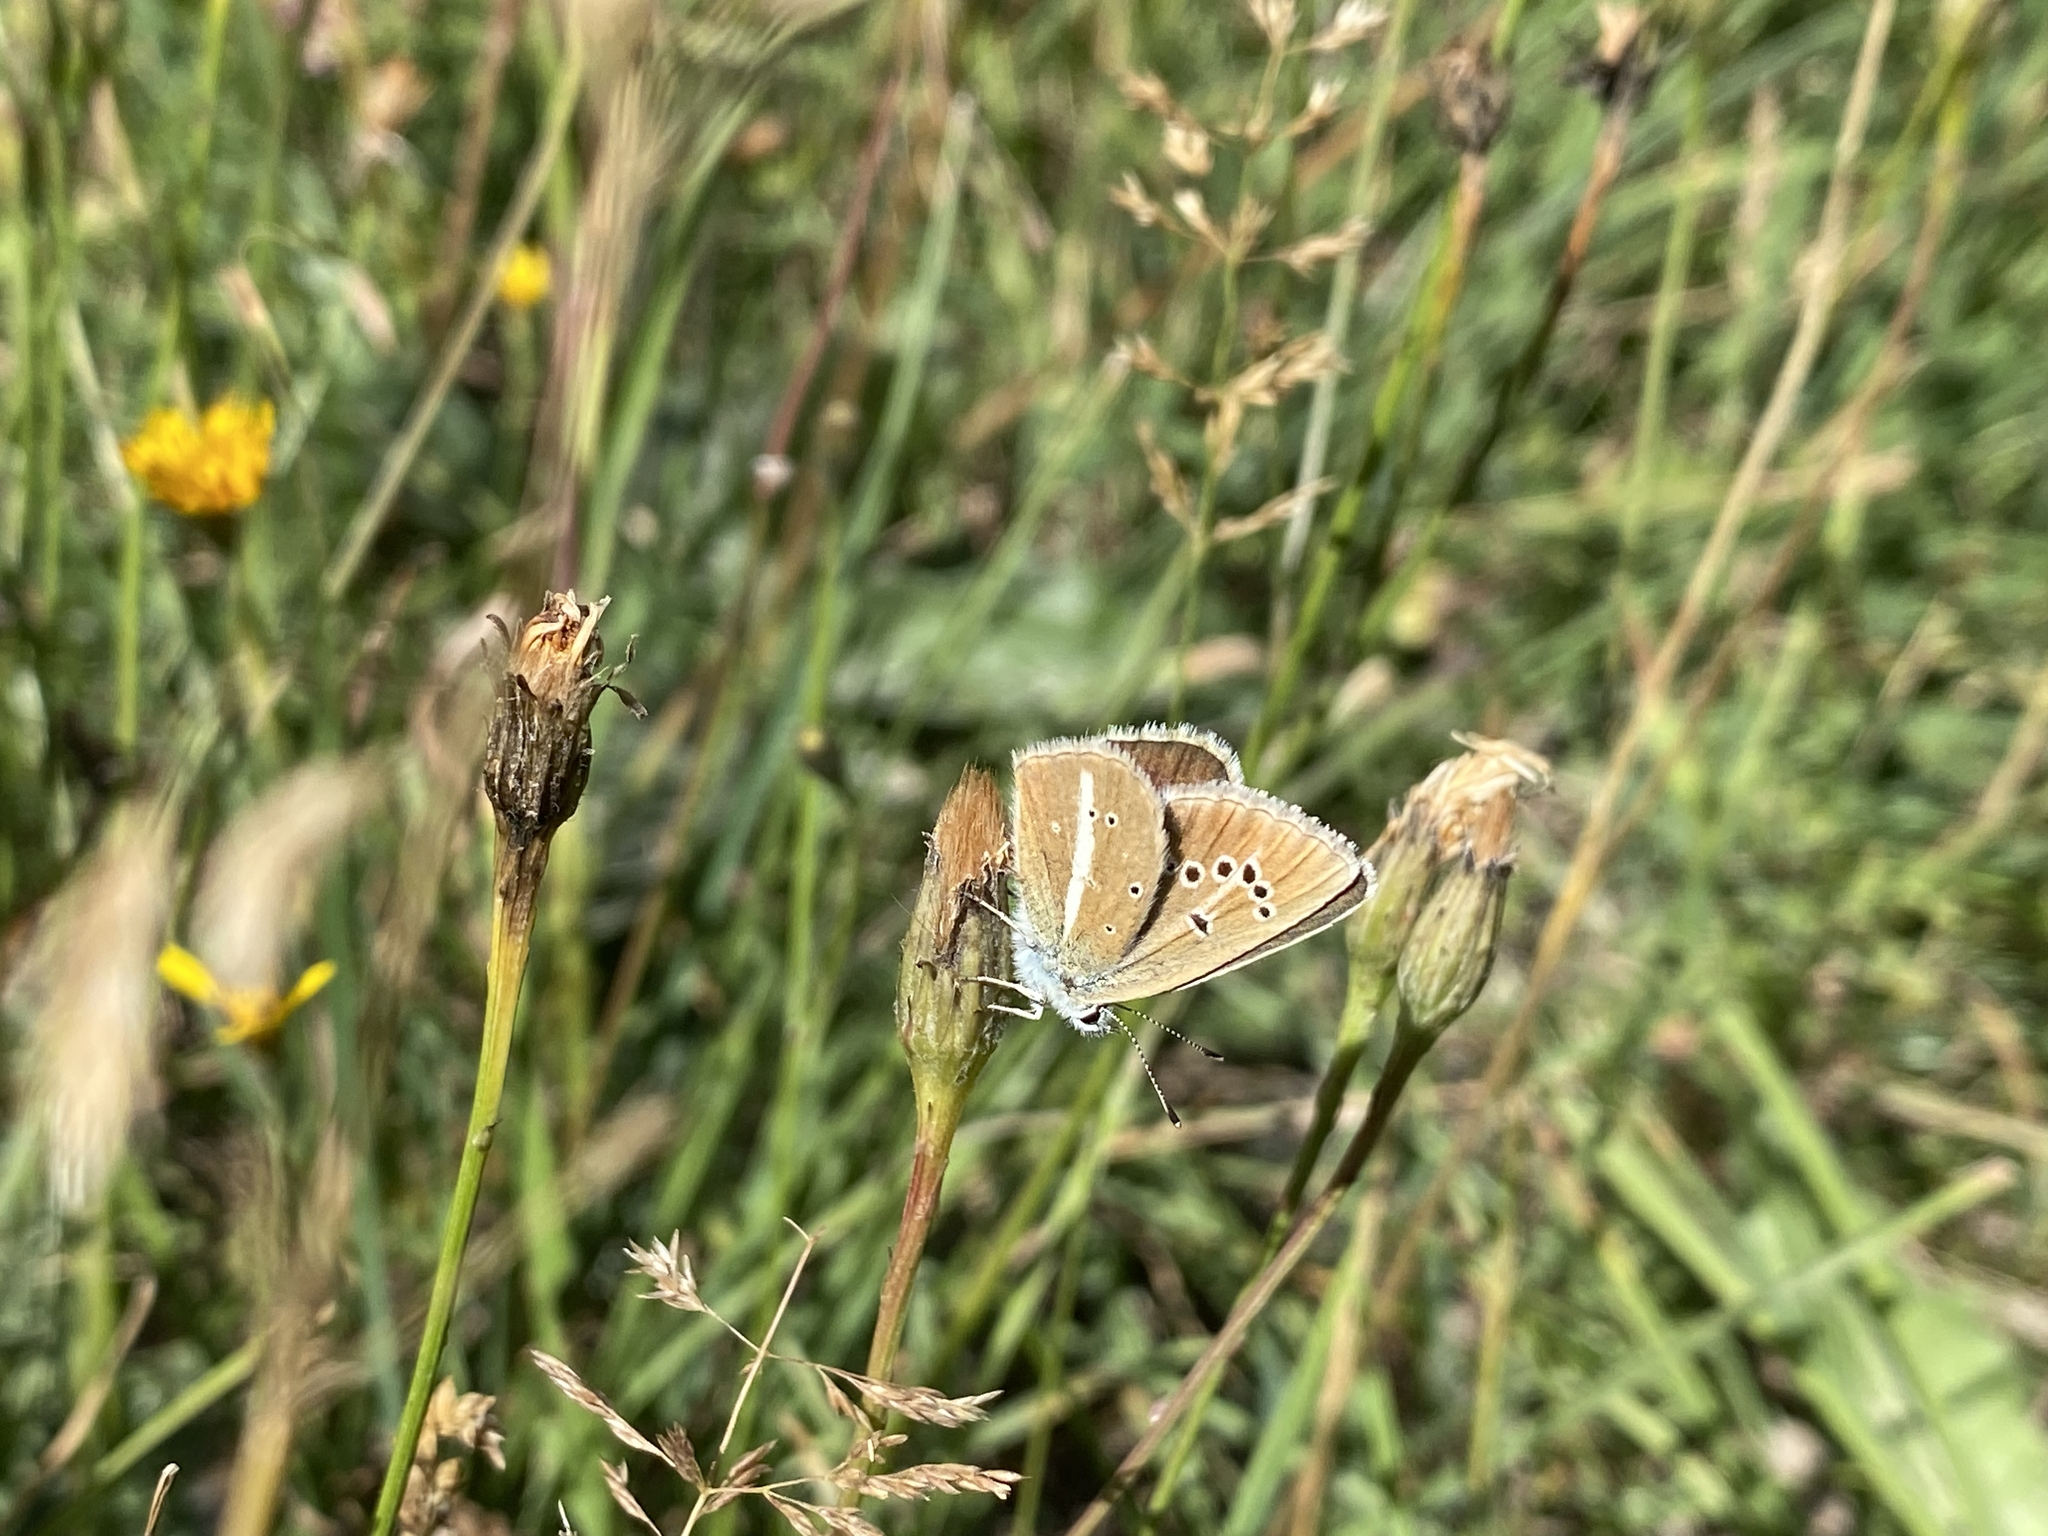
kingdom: Animalia
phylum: Arthropoda
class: Insecta
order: Lepidoptera
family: Lycaenidae
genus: Agrodiaetus
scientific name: Agrodiaetus damon
